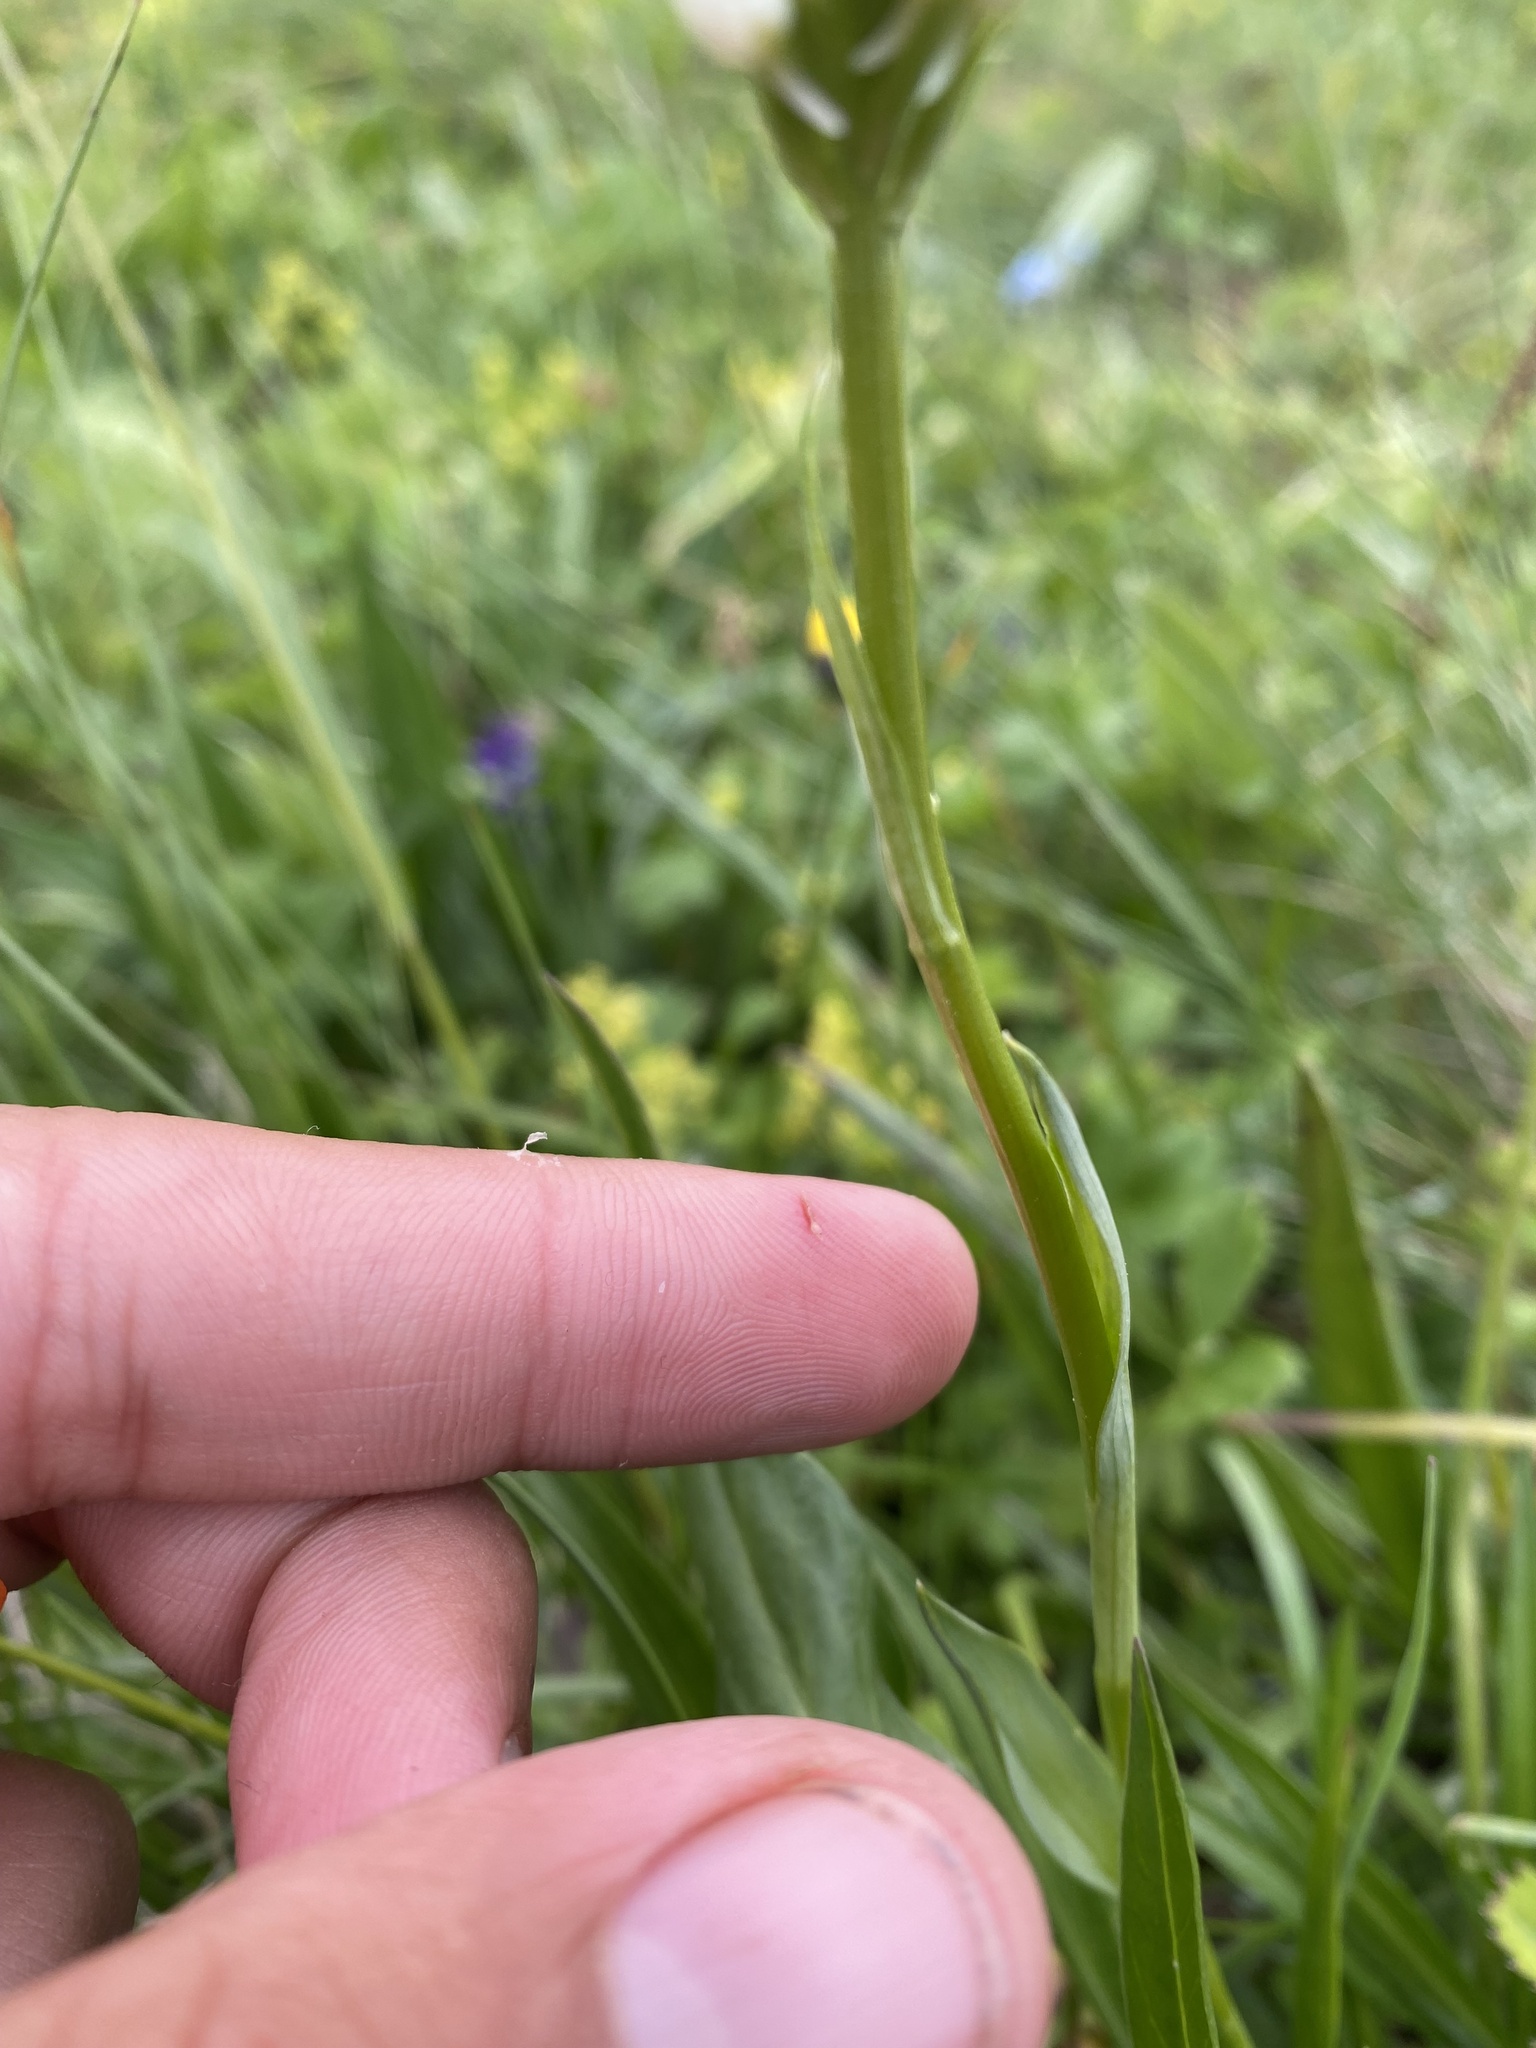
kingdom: Plantae
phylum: Tracheophyta
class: Liliopsida
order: Asparagales
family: Orchidaceae
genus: Traunsteinera
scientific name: Traunsteinera sphaerica
